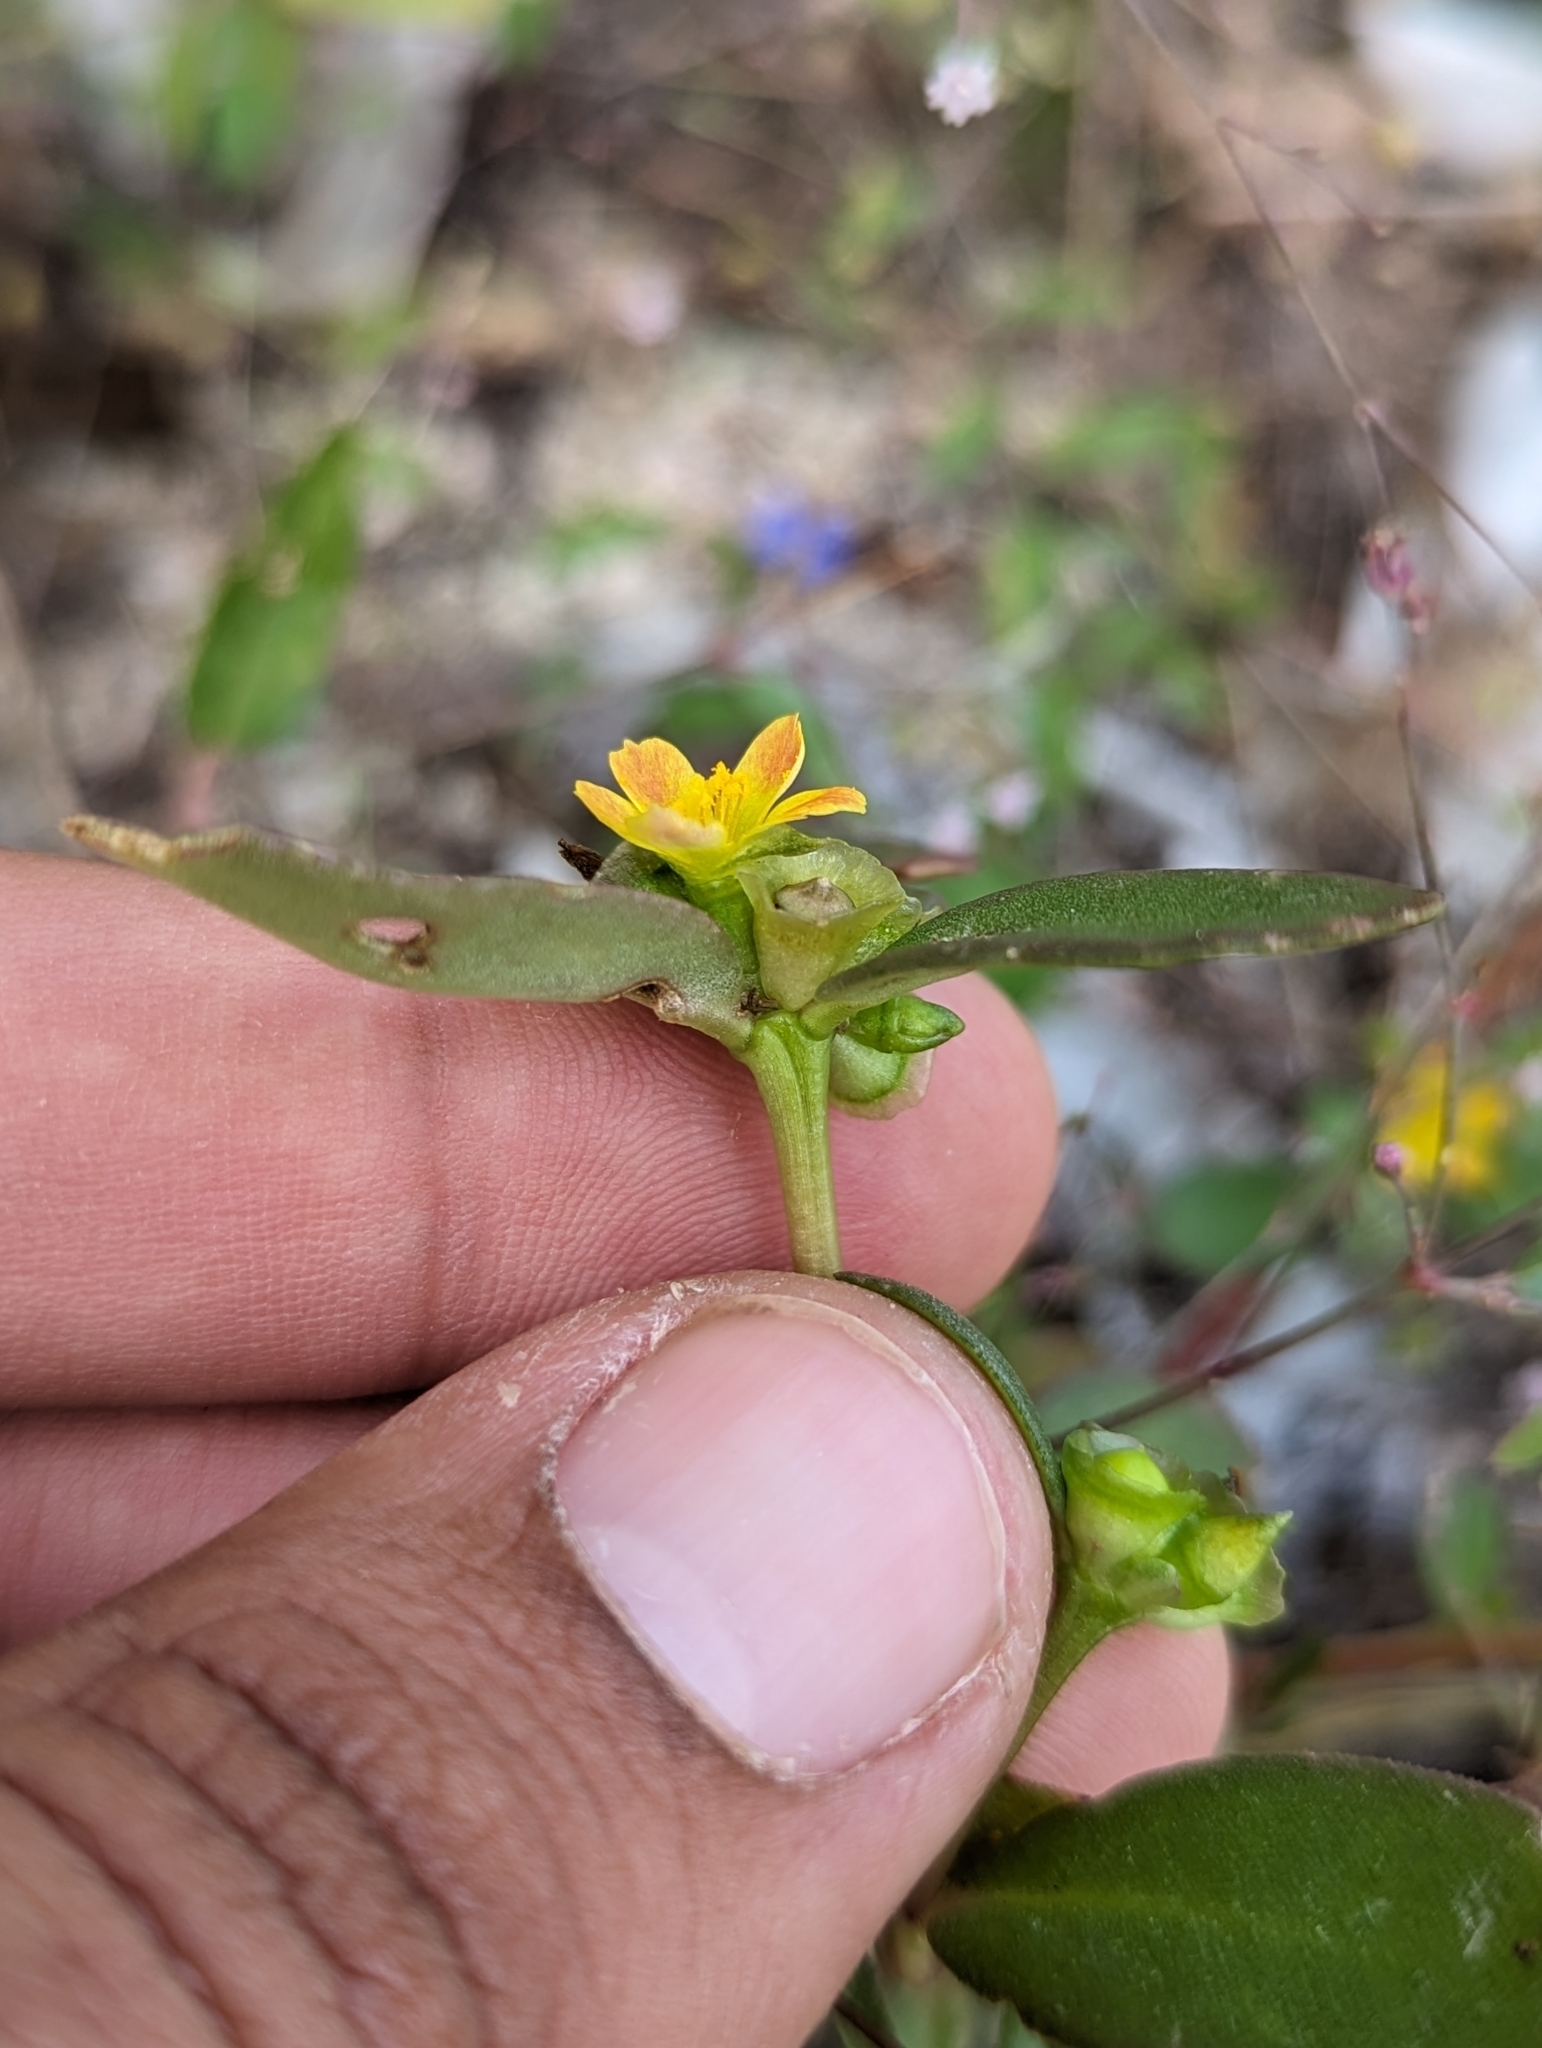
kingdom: Plantae
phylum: Tracheophyta
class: Magnoliopsida
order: Caryophyllales
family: Portulacaceae
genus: Portulaca
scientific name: Portulaca umbraticola
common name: Wingpod purslane
